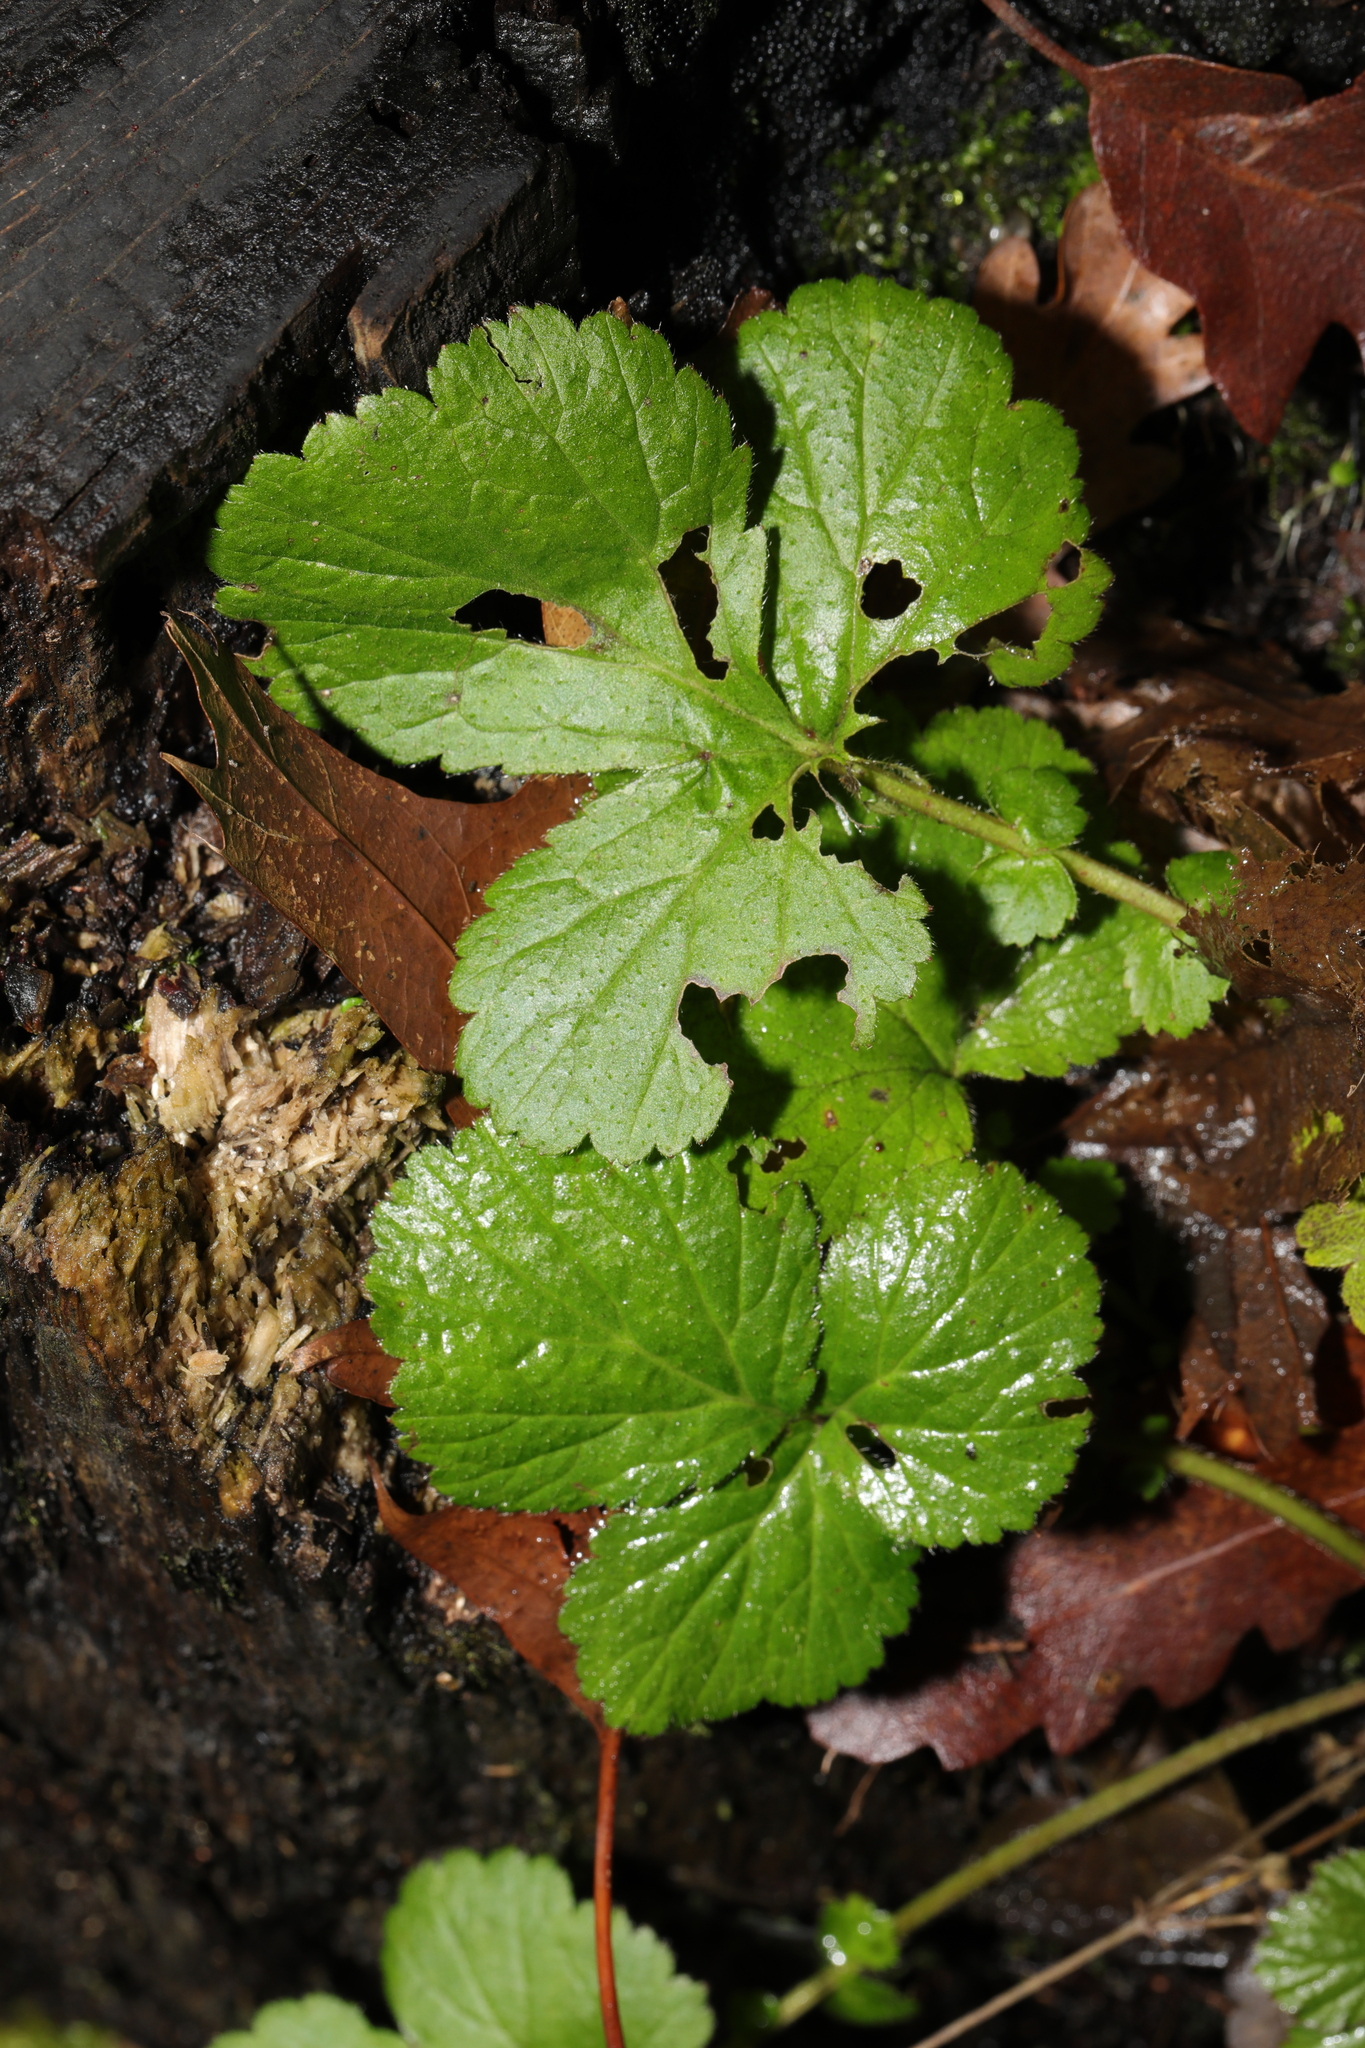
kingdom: Plantae
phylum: Tracheophyta
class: Magnoliopsida
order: Rosales
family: Rosaceae
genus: Geum
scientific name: Geum urbanum
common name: Wood avens
